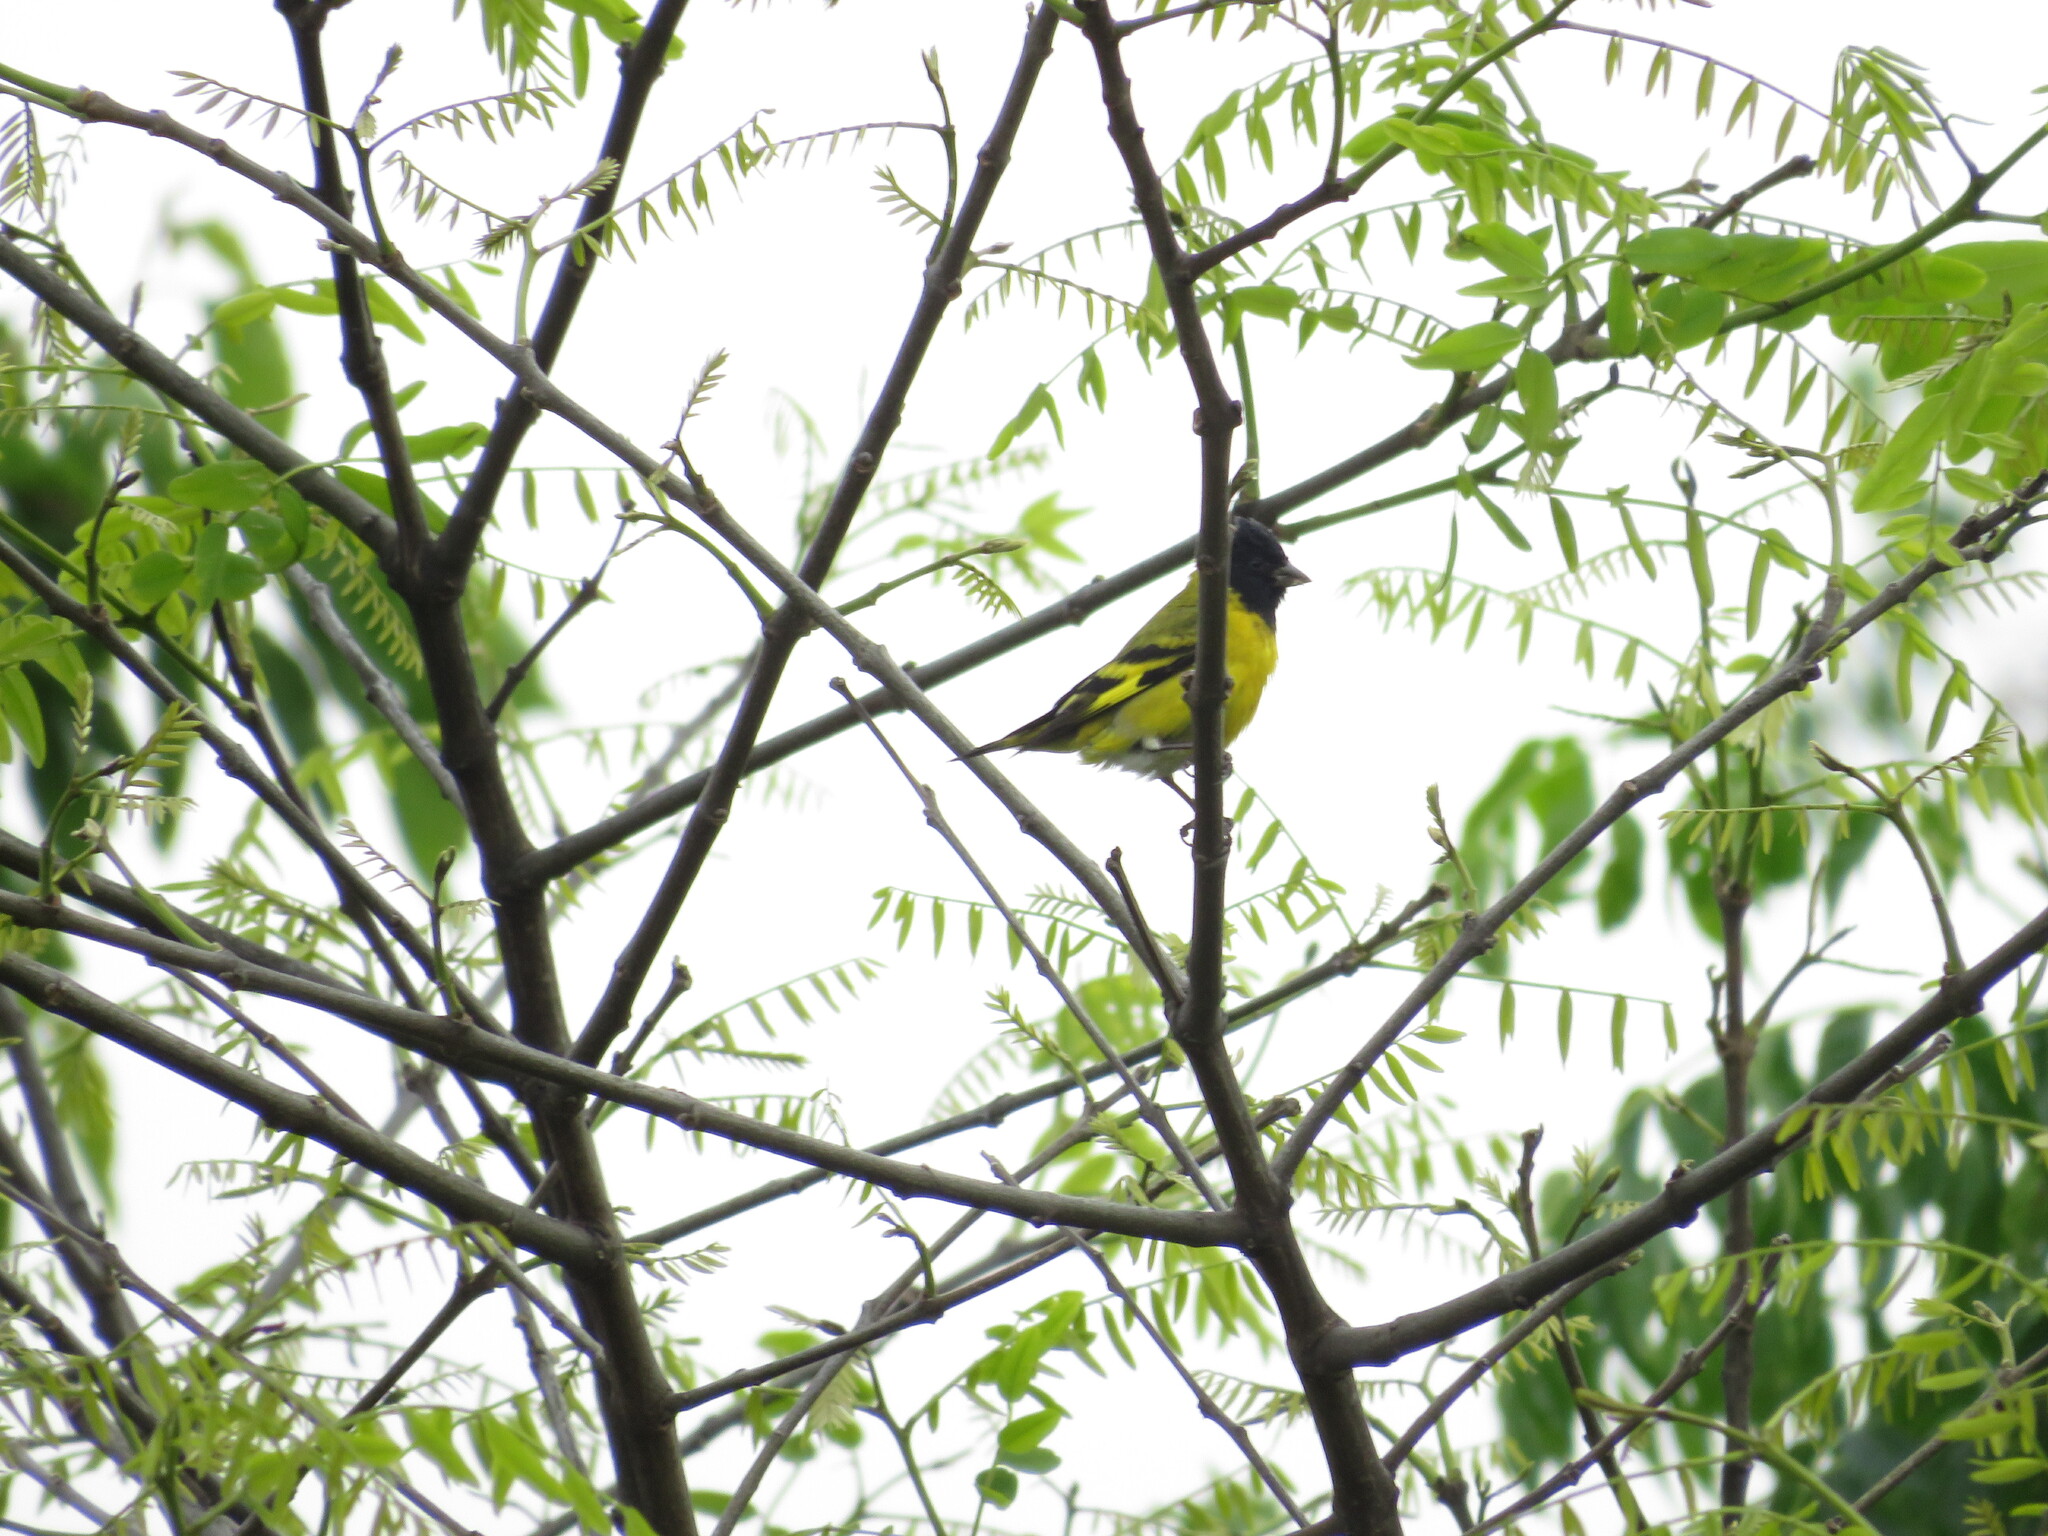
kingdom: Animalia
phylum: Chordata
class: Aves
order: Passeriformes
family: Fringillidae
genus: Spinus
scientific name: Spinus magellanicus
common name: Hooded siskin
